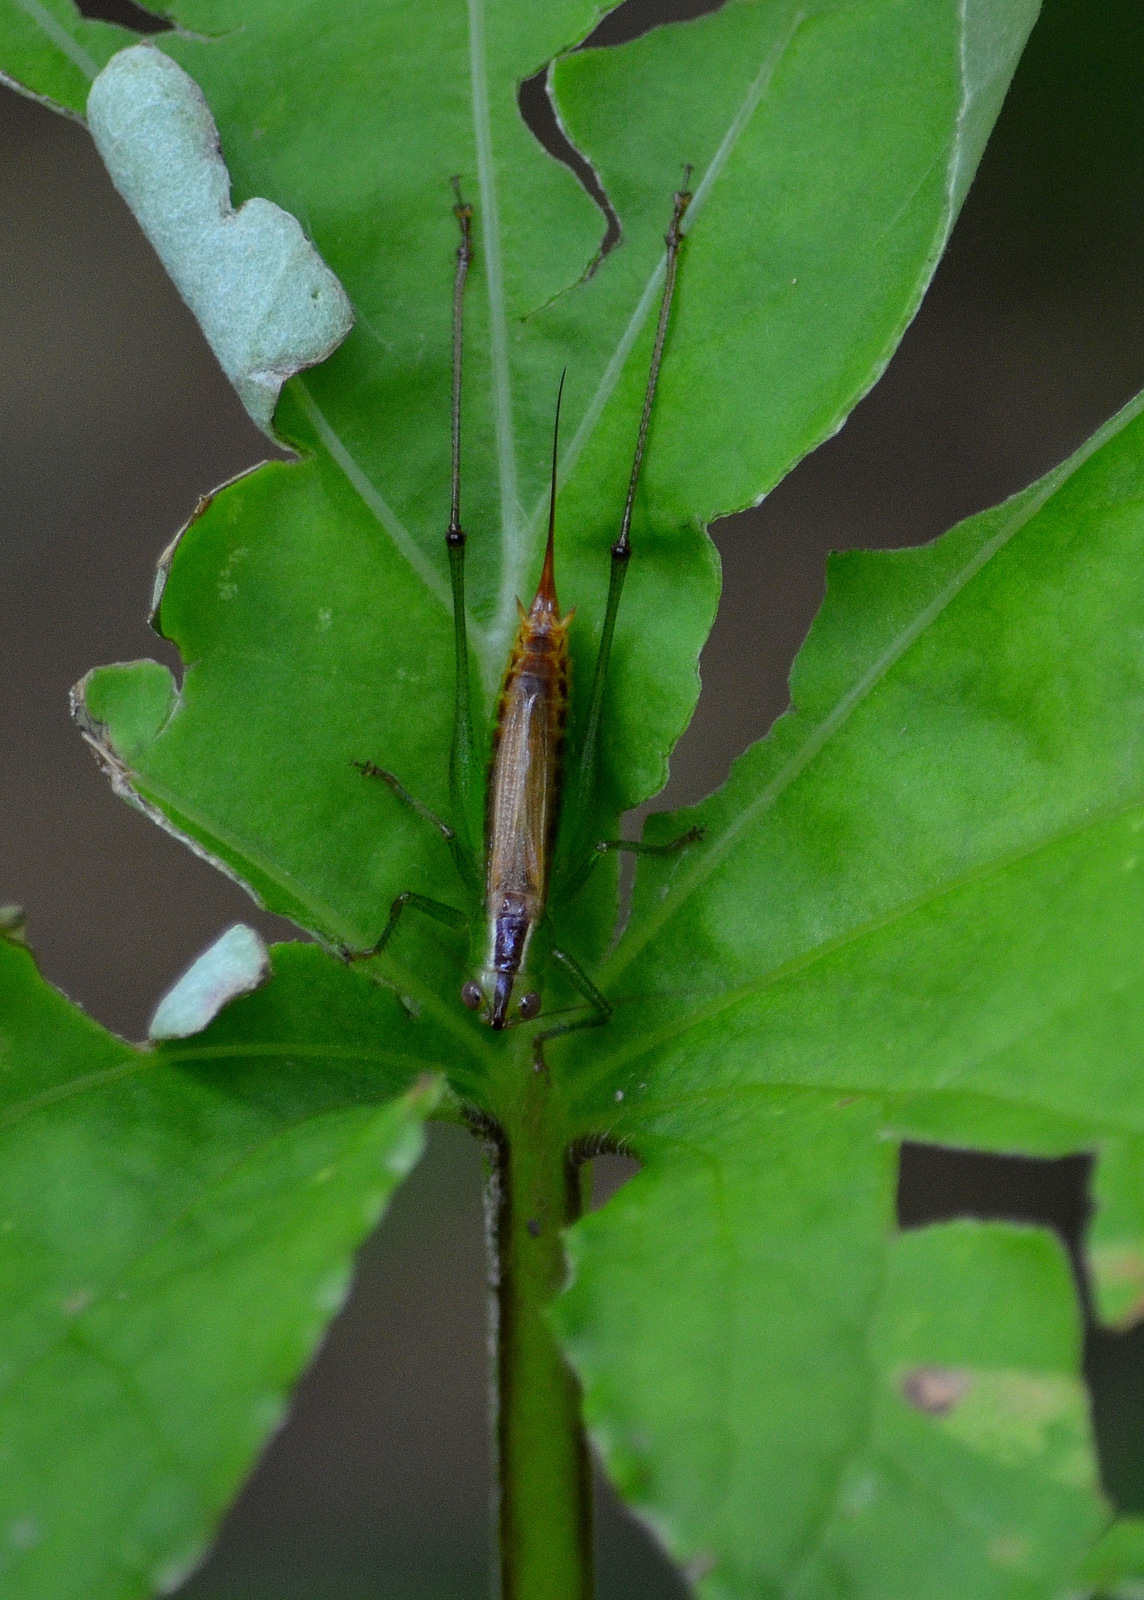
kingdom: Animalia
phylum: Arthropoda
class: Insecta
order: Orthoptera
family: Tettigoniidae
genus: Conocephalus
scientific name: Conocephalus brevipennis
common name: Short-winged meadow katydid
